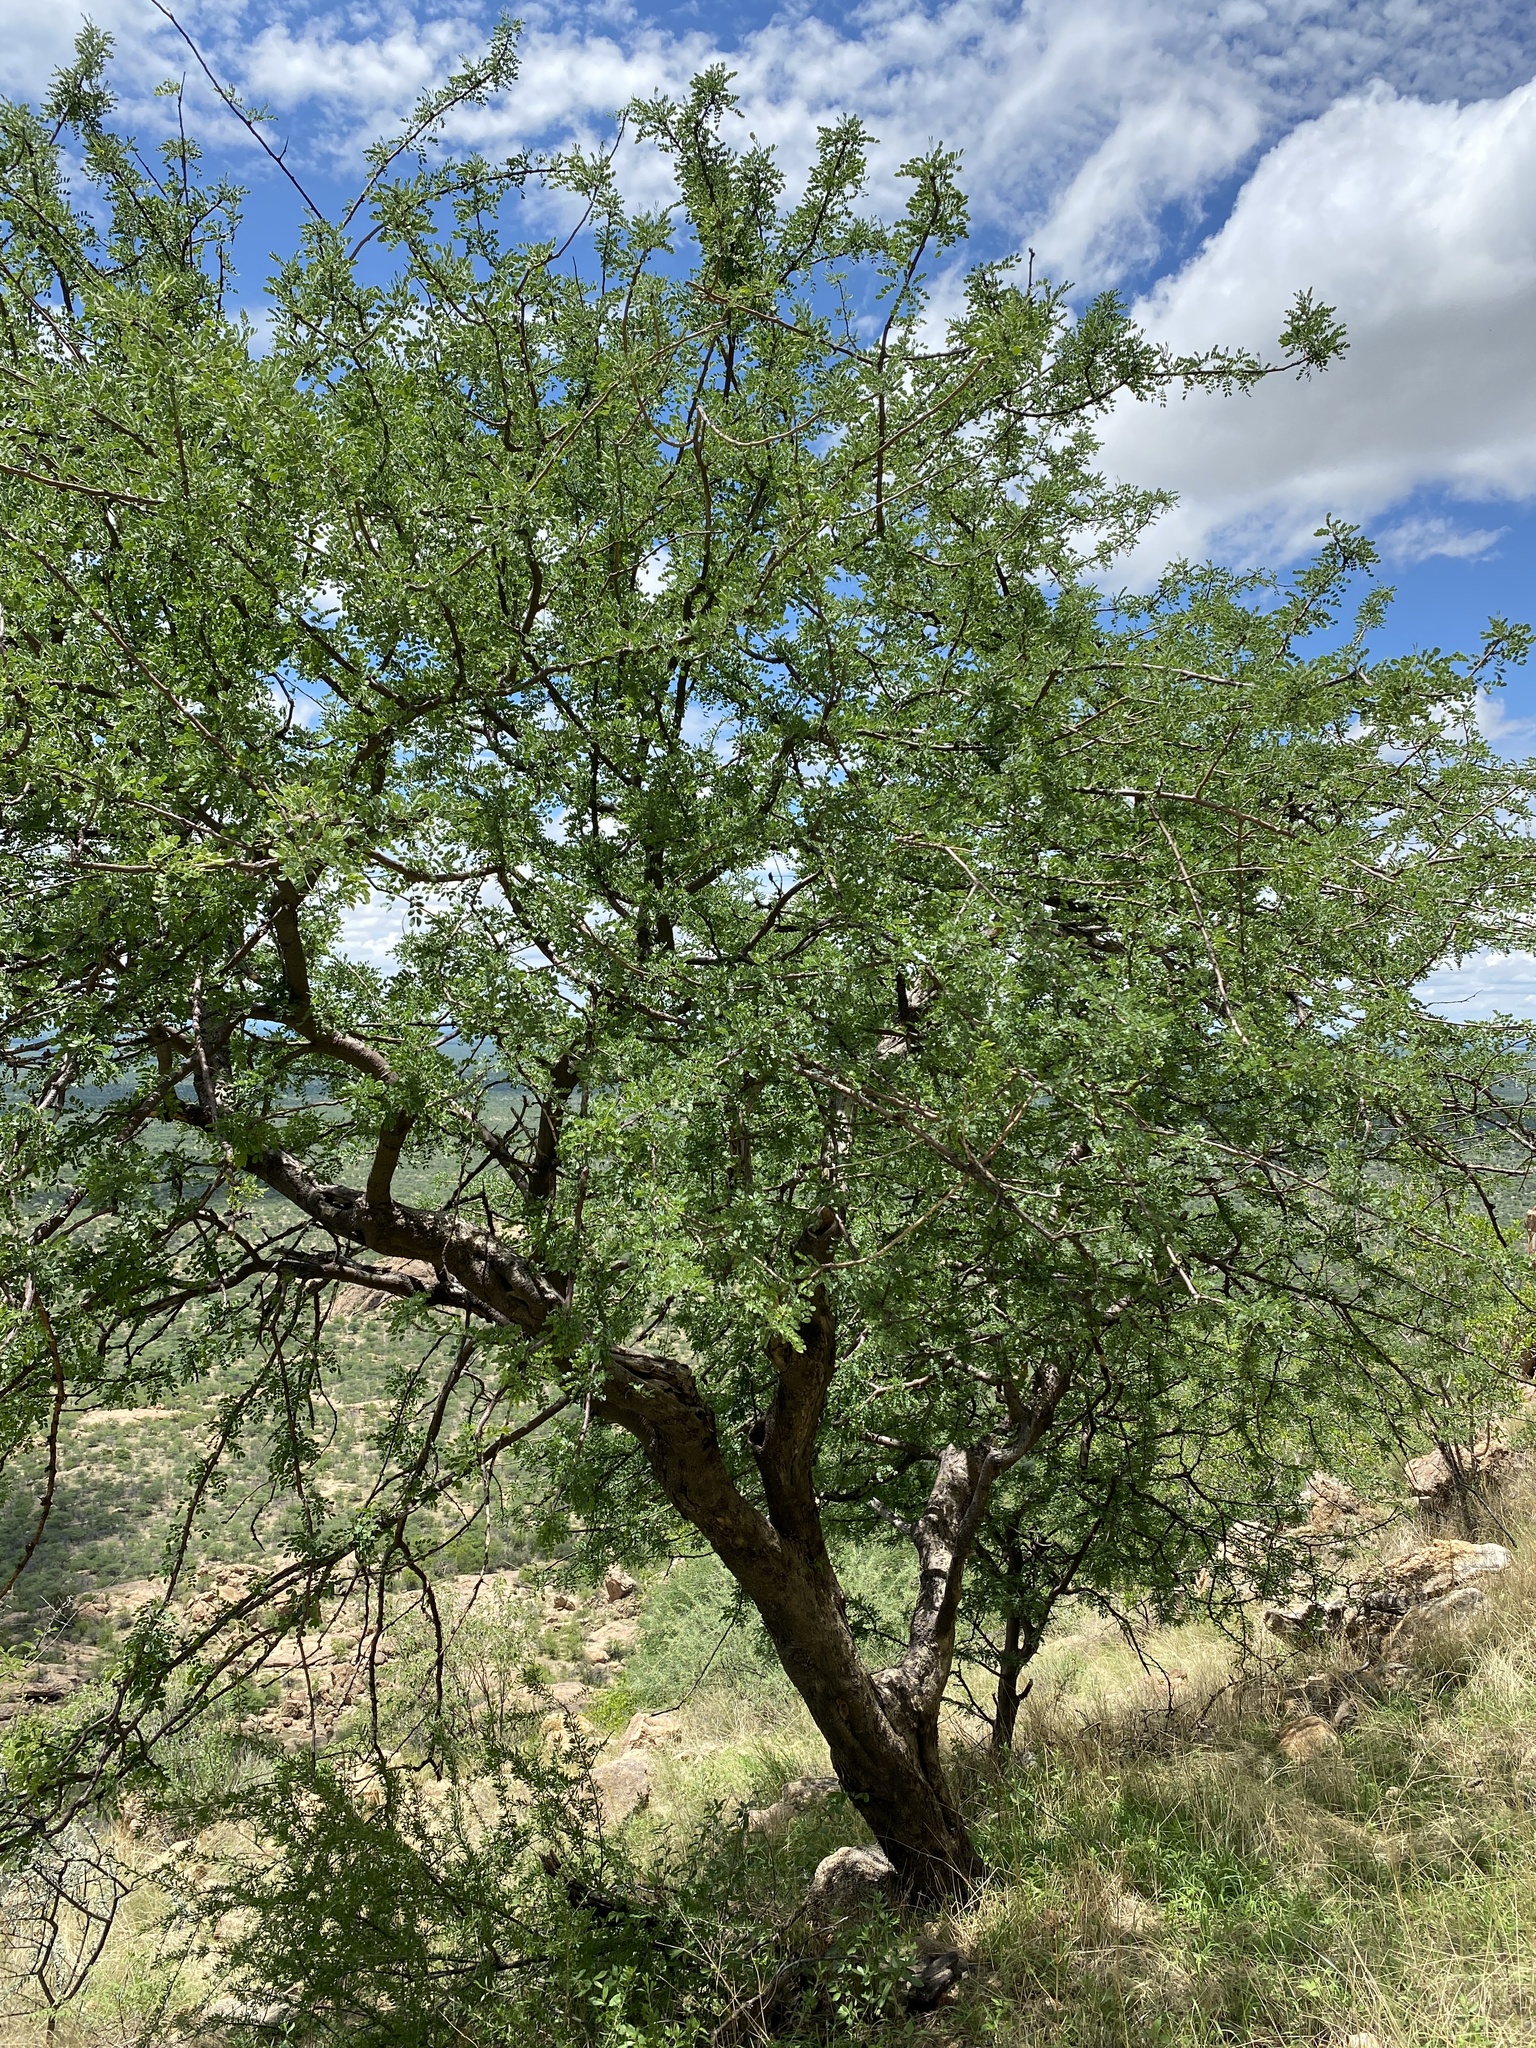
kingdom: Plantae
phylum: Tracheophyta
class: Magnoliopsida
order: Fabales
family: Fabaceae
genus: Albizia
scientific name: Albizia anthelmintica
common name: Worm-bark false-thorn
